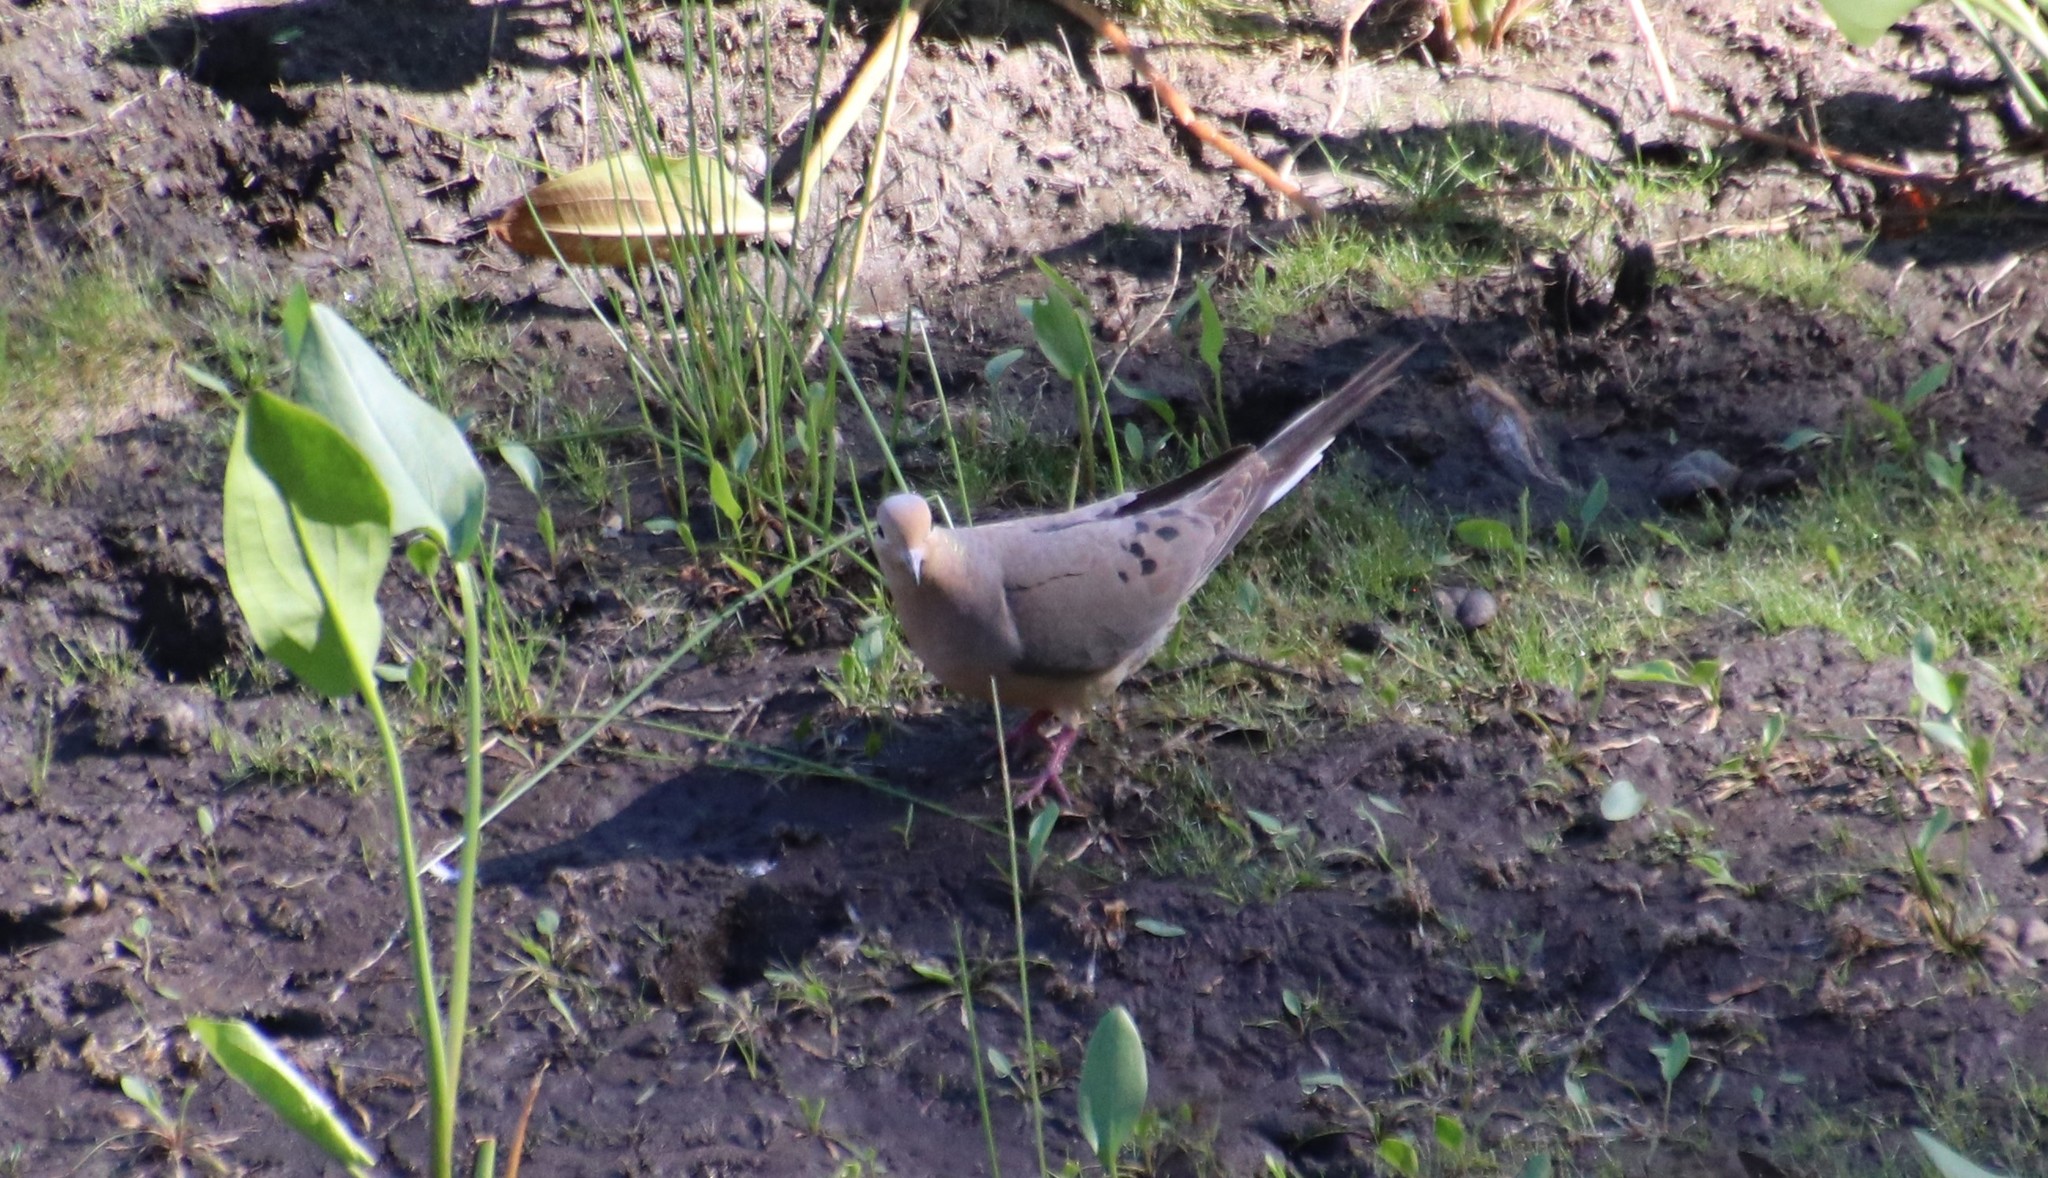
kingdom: Animalia
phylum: Chordata
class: Aves
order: Columbiformes
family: Columbidae
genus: Zenaida
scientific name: Zenaida macroura
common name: Mourning dove
